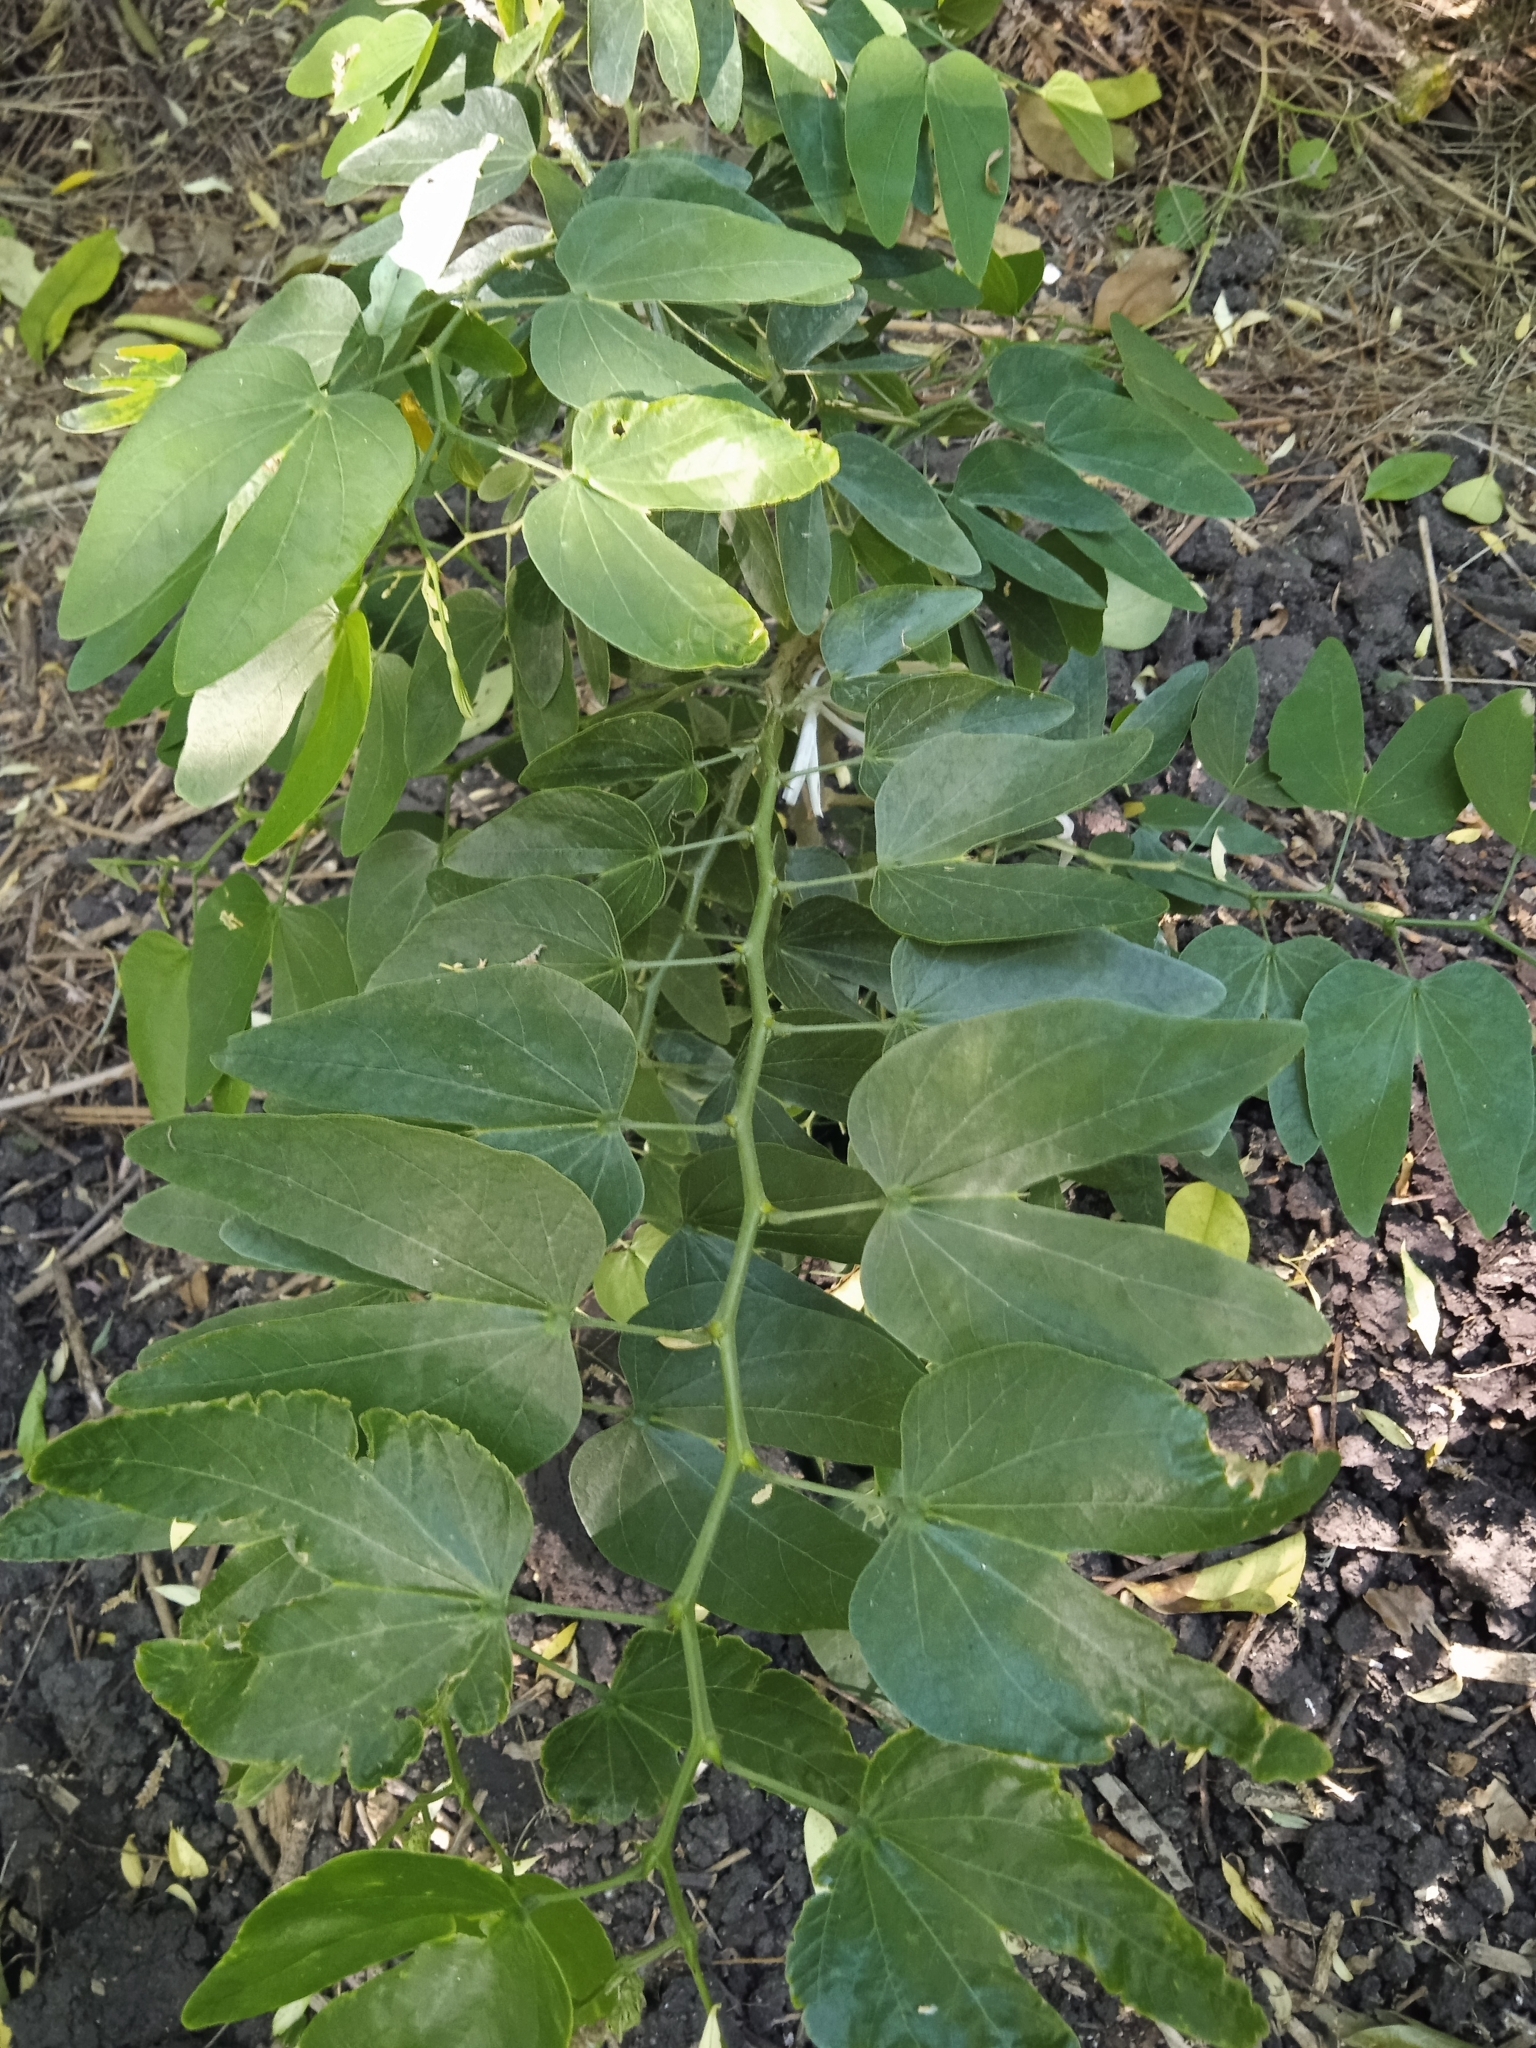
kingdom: Plantae
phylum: Tracheophyta
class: Magnoliopsida
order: Fabales
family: Fabaceae
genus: Bauhinia
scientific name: Bauhinia forficata
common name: Orchid tree
